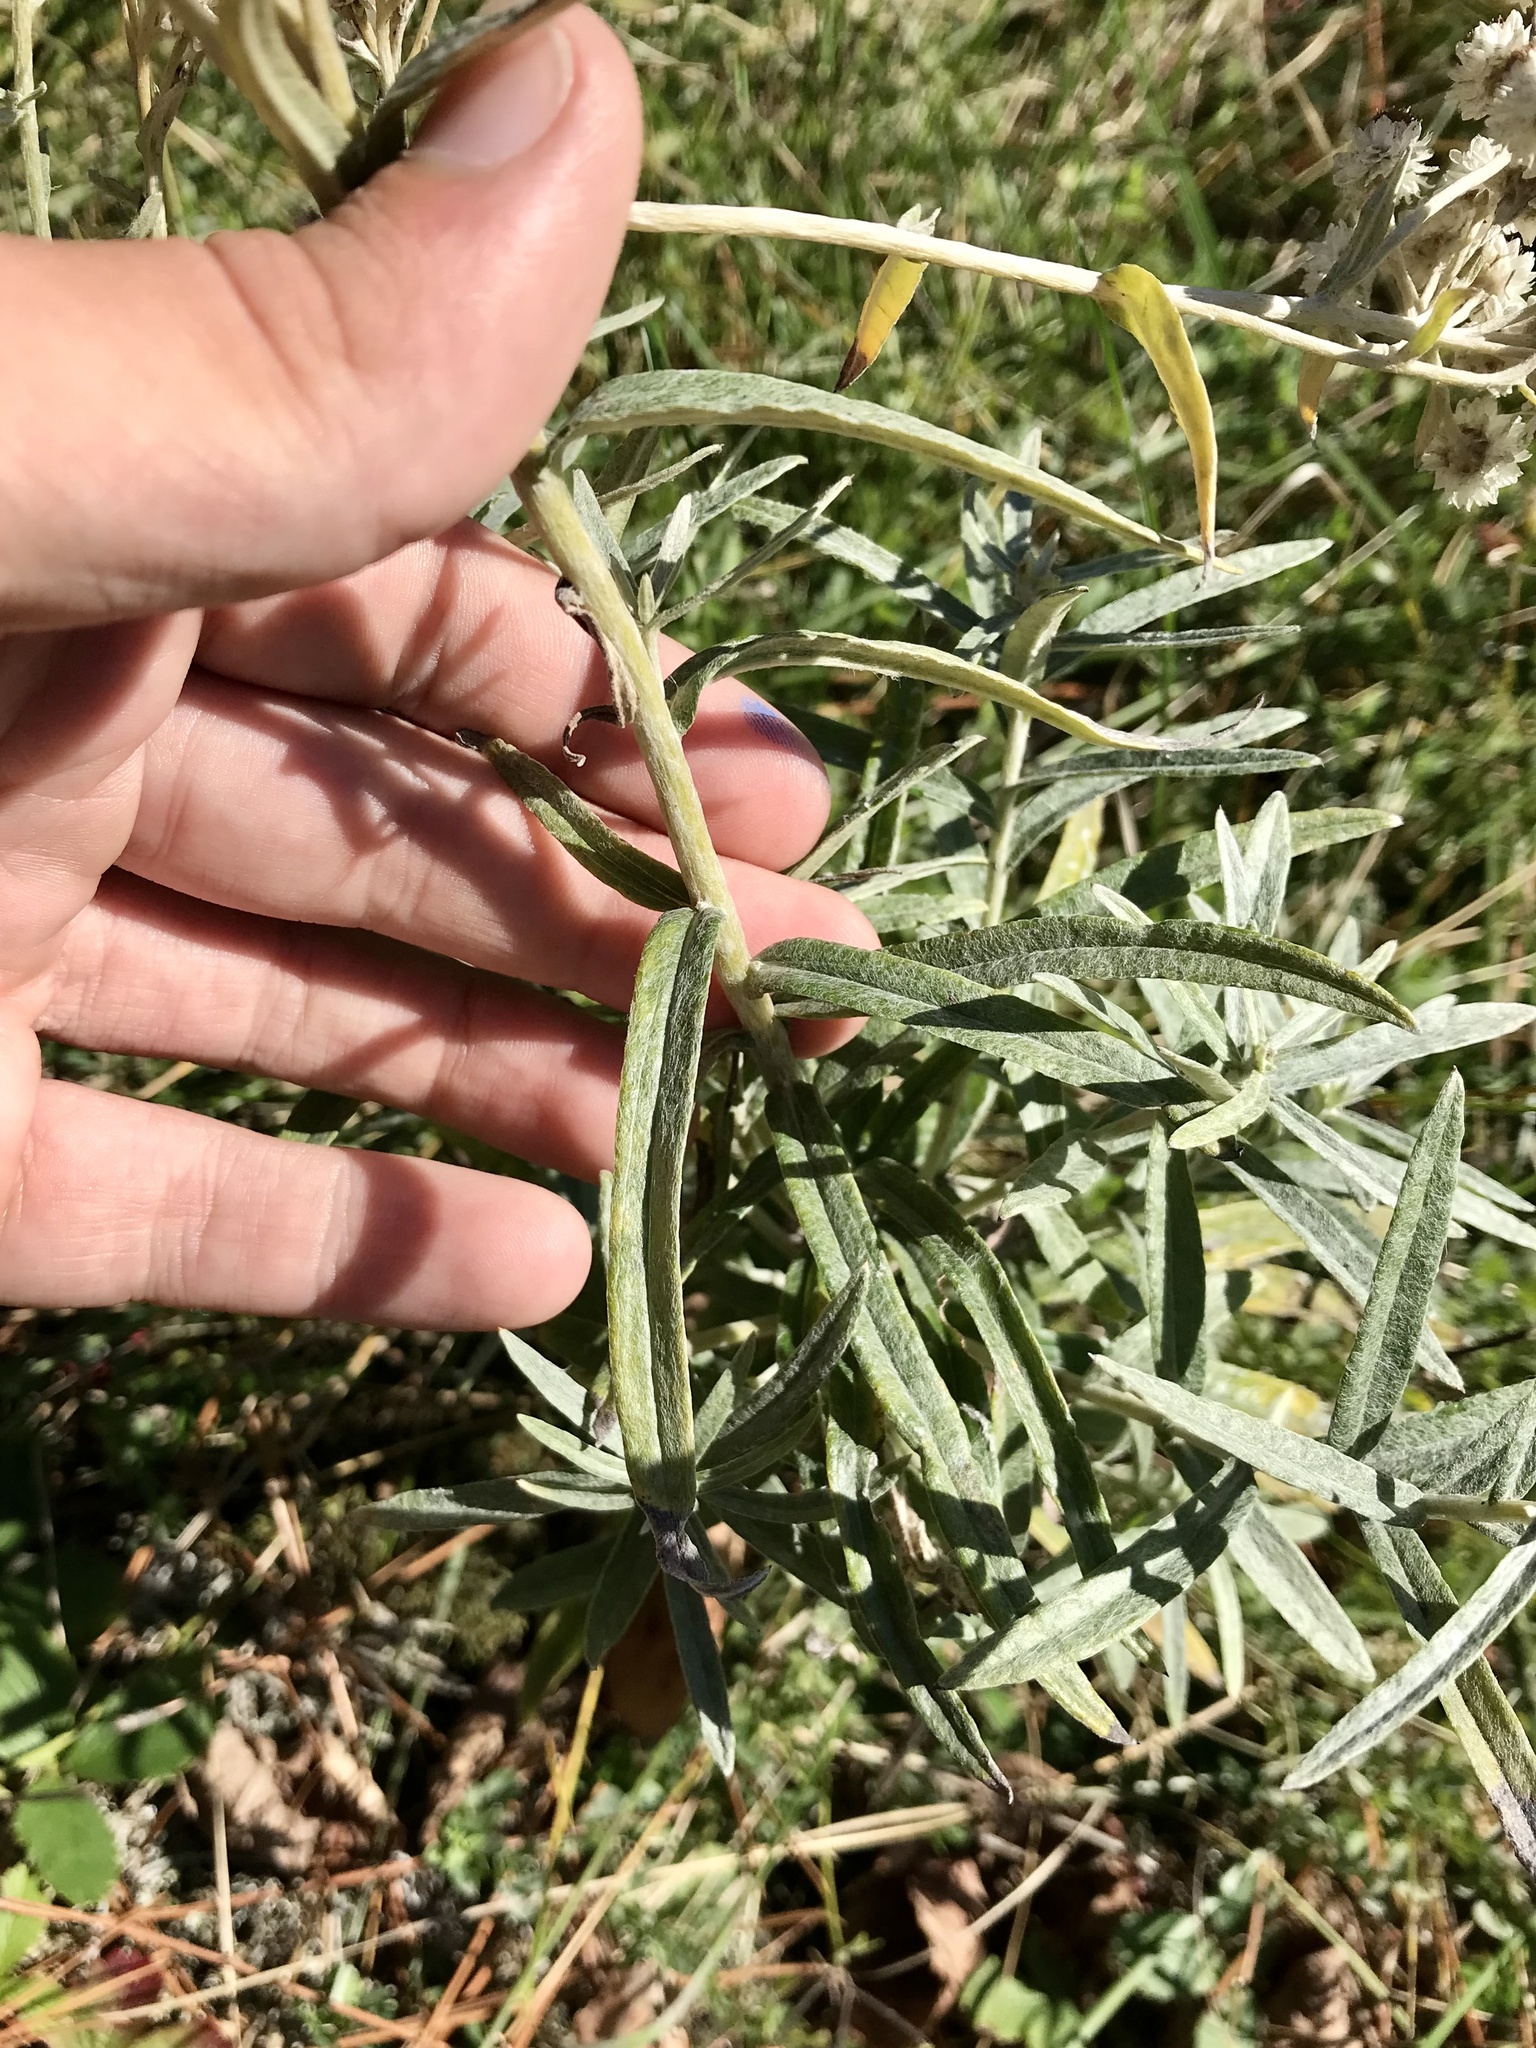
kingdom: Plantae
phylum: Tracheophyta
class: Magnoliopsida
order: Asterales
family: Asteraceae
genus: Anaphalis
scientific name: Anaphalis margaritacea
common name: Pearly everlasting
